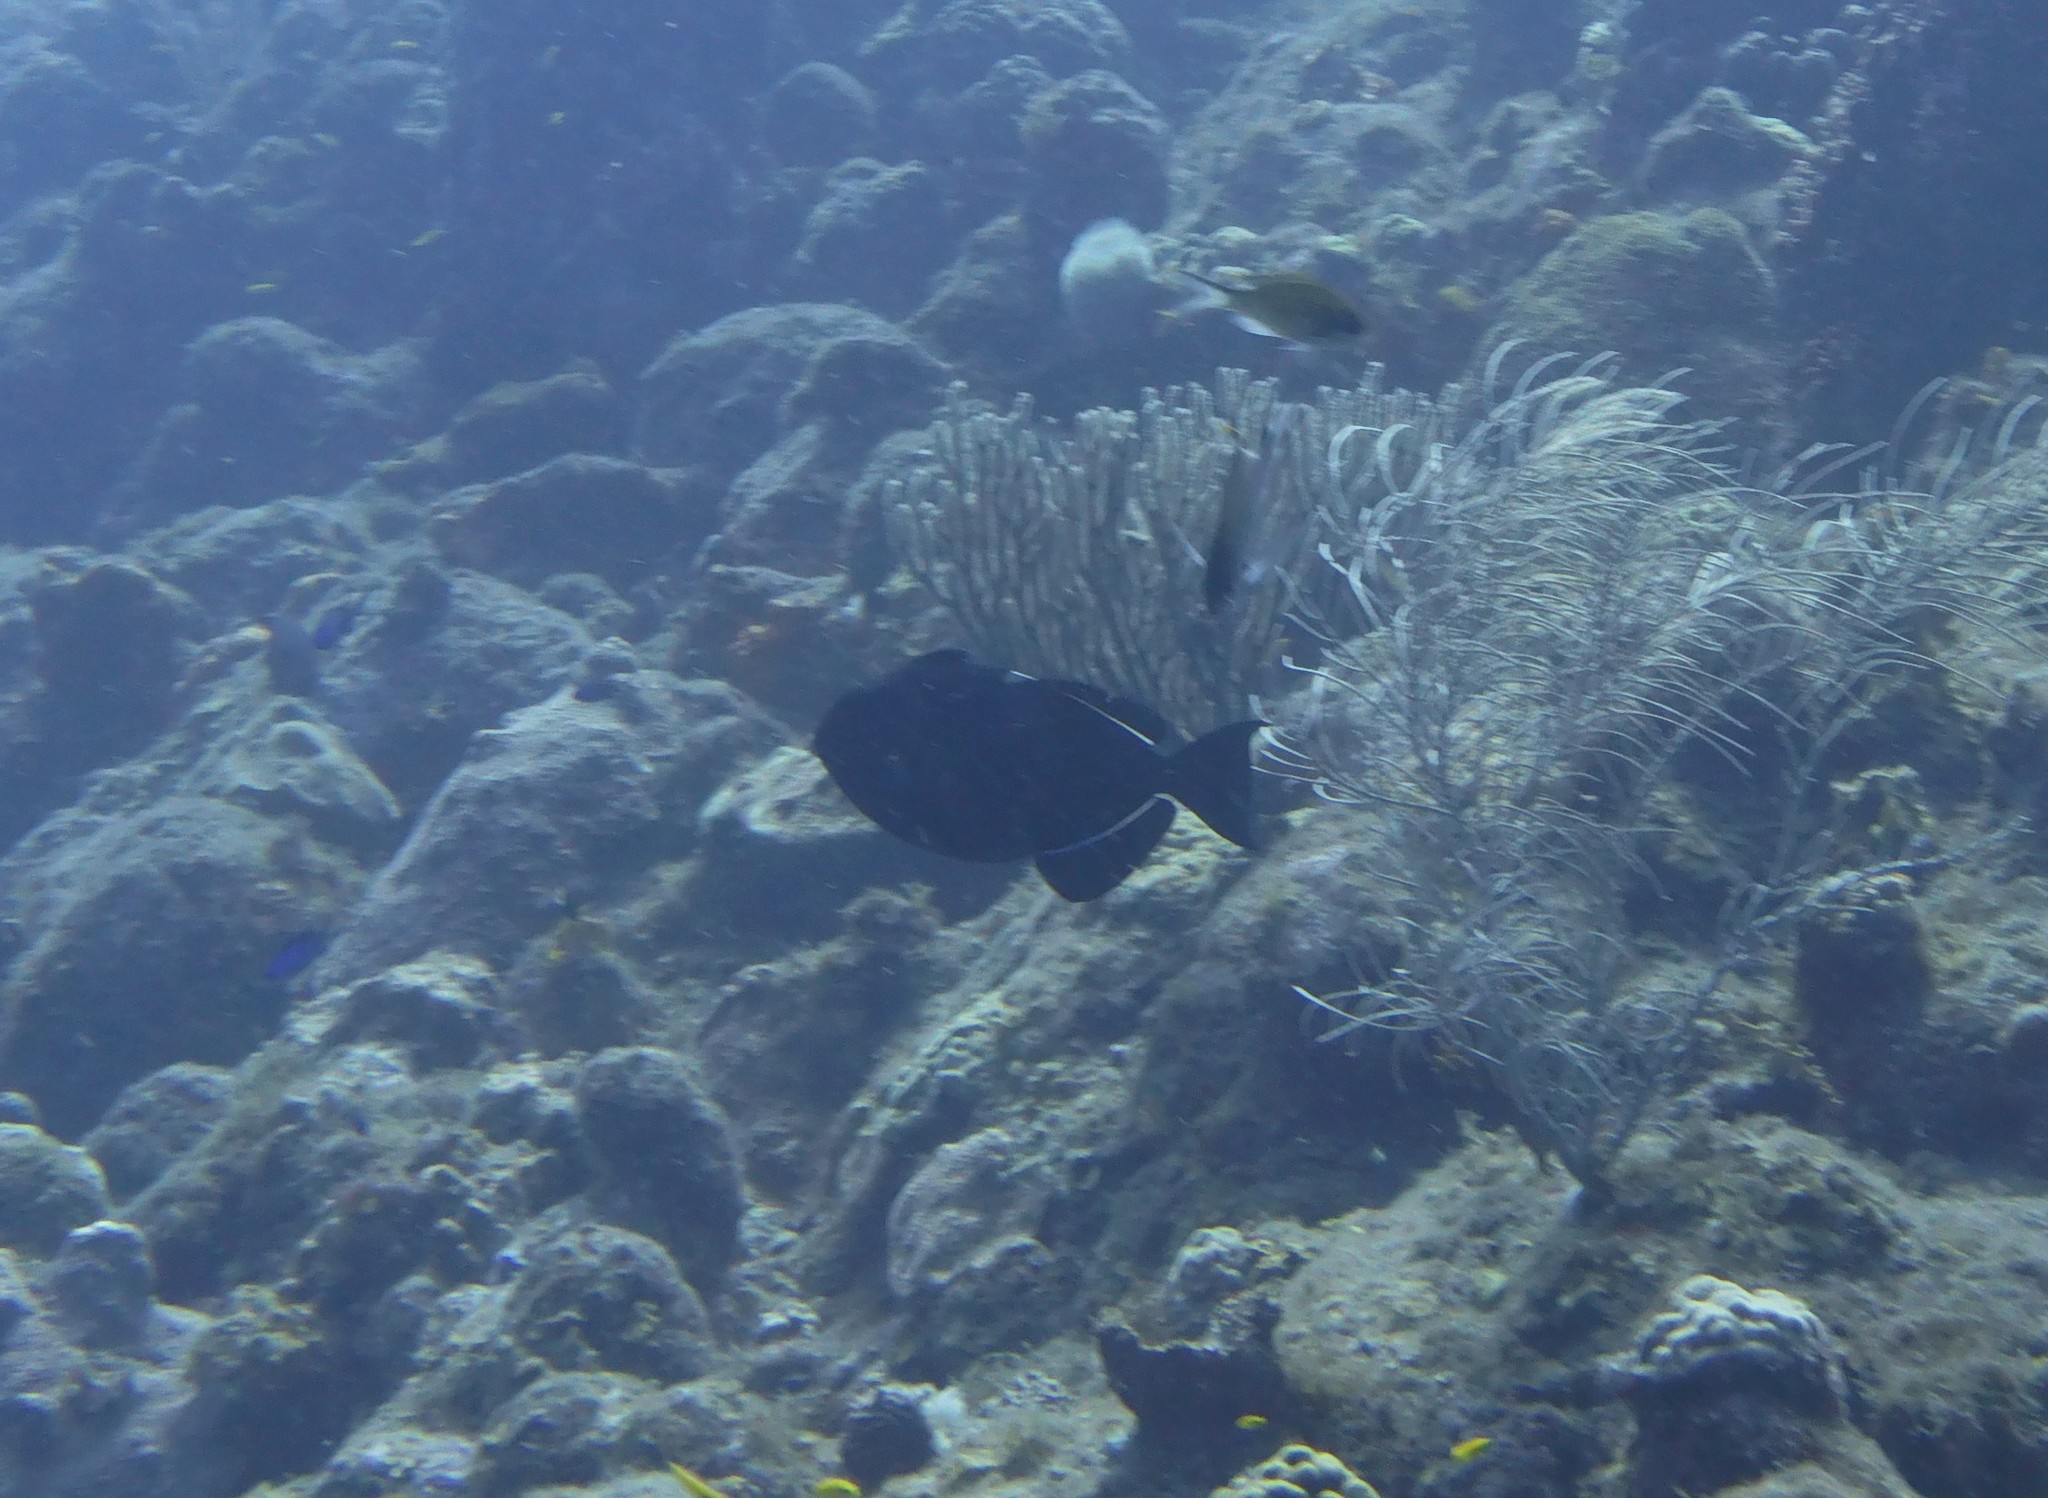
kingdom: Animalia
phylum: Chordata
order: Tetraodontiformes
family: Balistidae
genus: Melichthys
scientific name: Melichthys niger
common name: Black durgon
